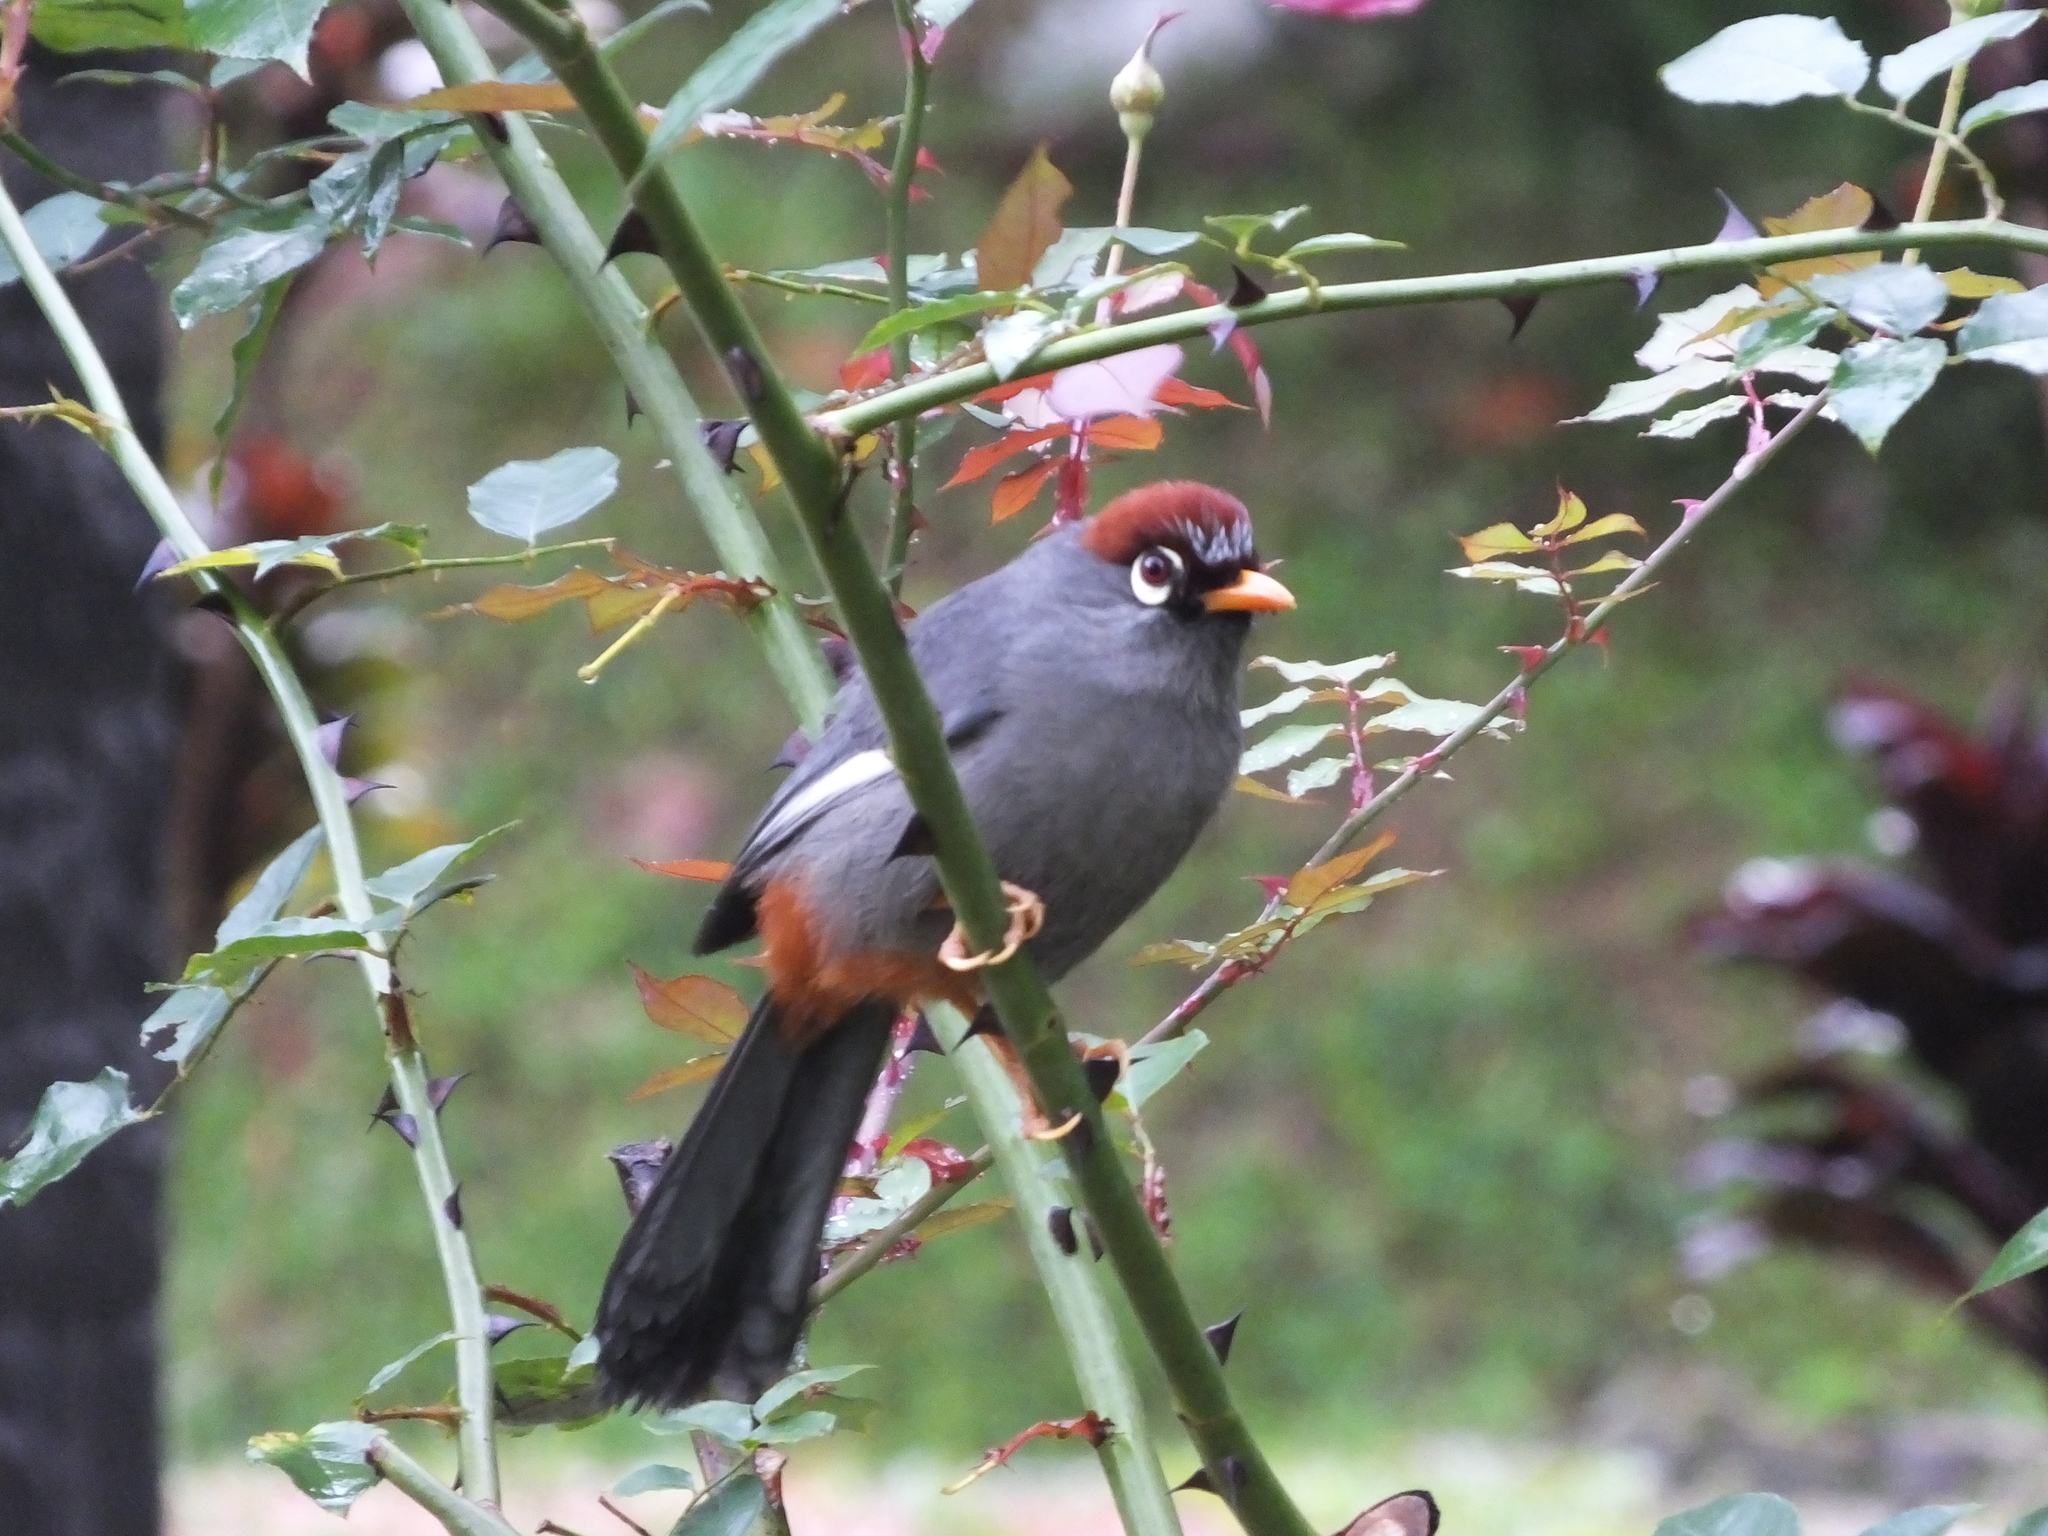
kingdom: Animalia
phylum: Chordata
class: Aves
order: Passeriformes
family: Leiothrichidae
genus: Garrulax
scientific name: Garrulax mitratus
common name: Chestnut-capped laughingthrush
